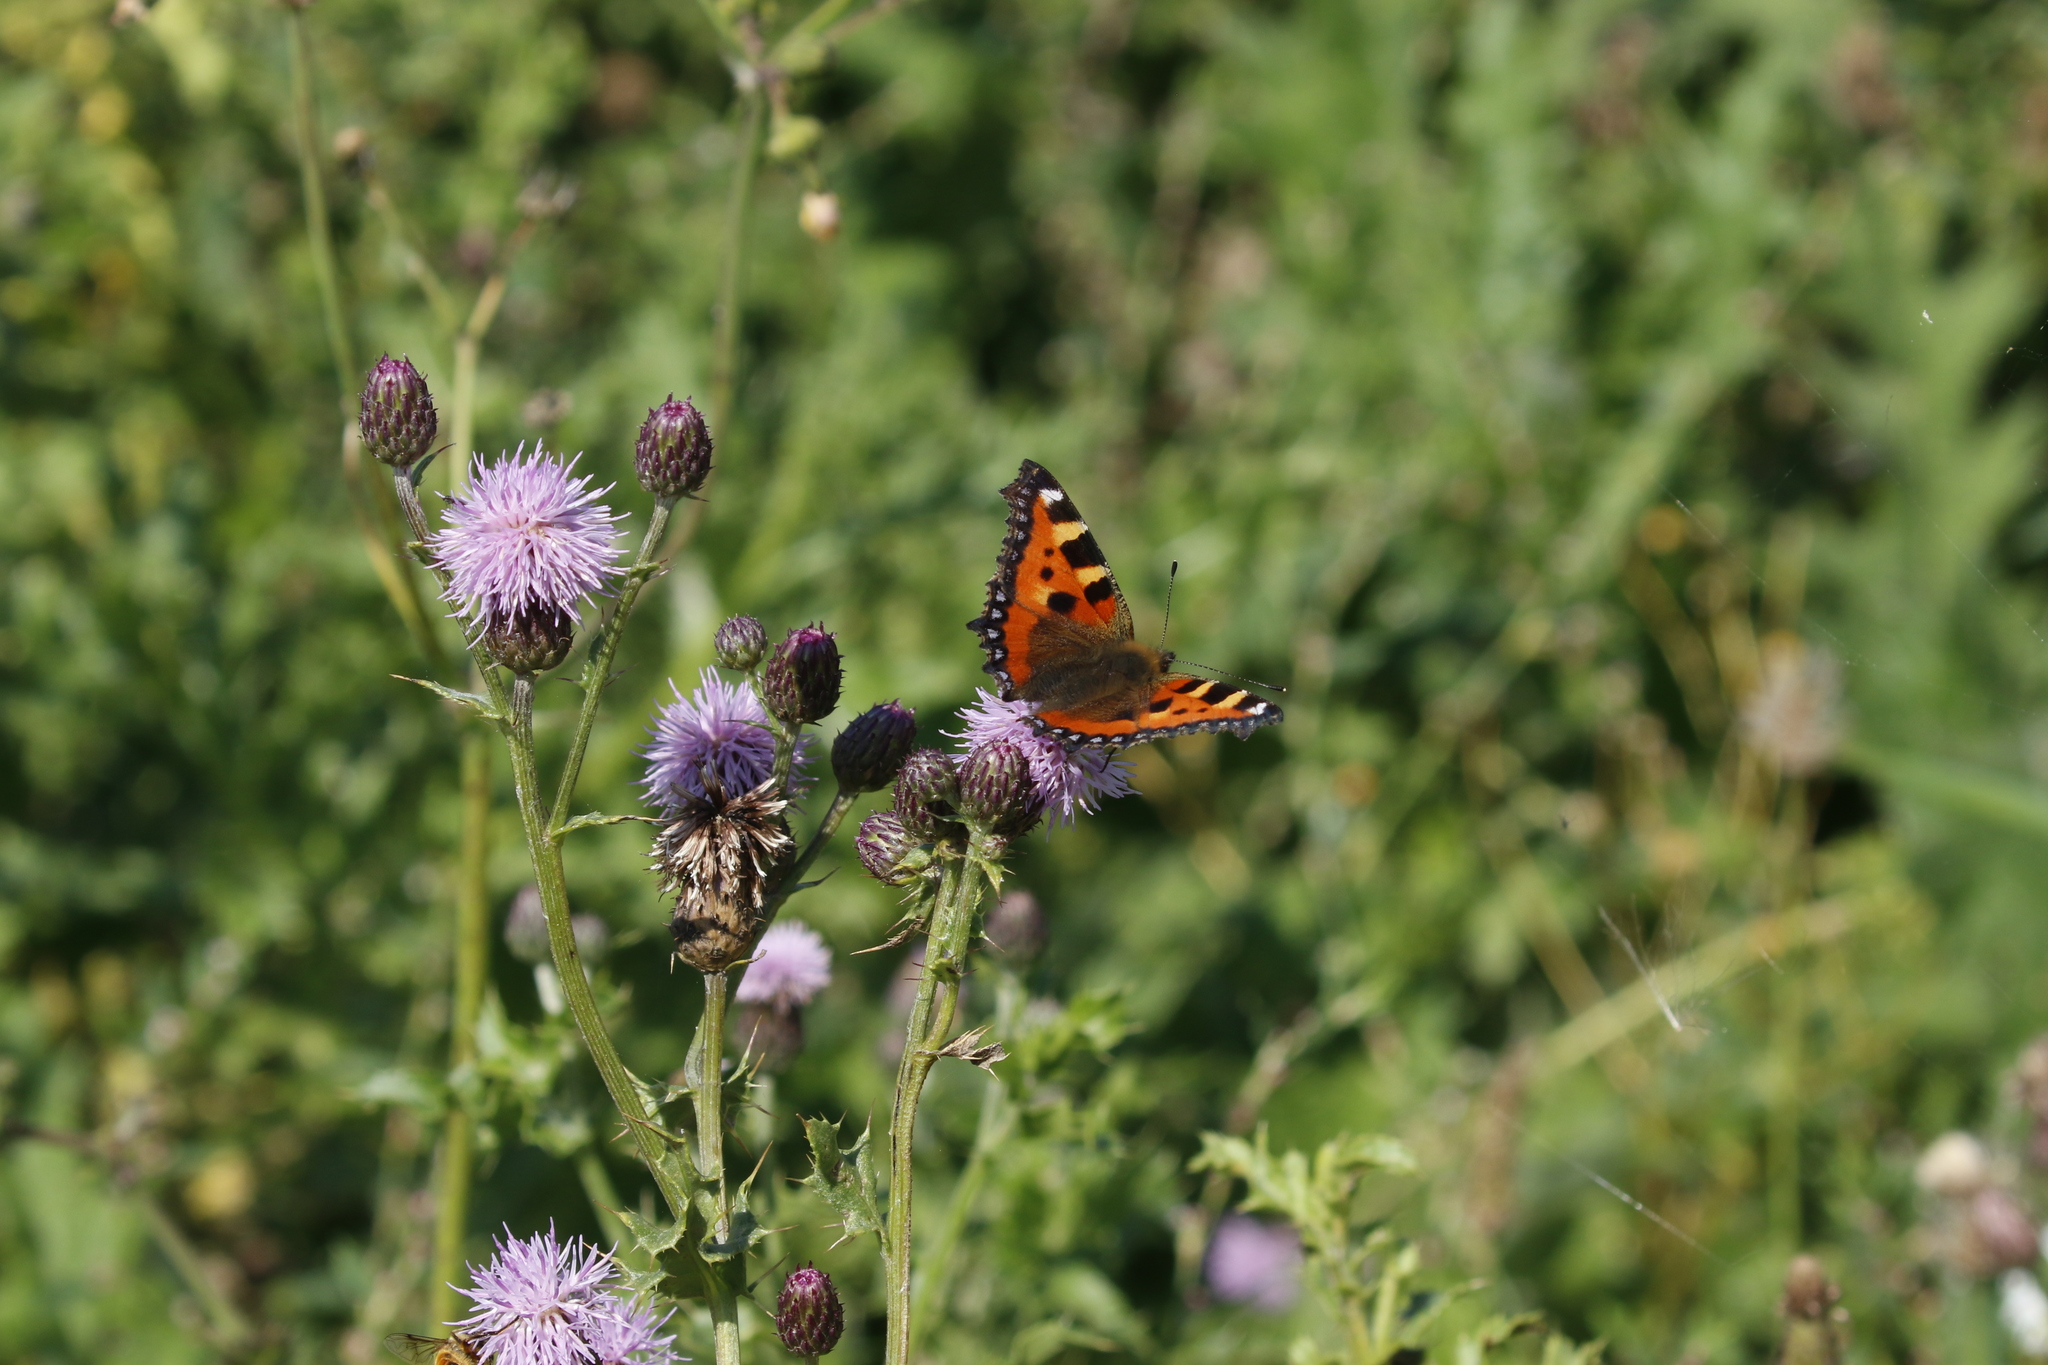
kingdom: Animalia
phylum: Arthropoda
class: Insecta
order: Lepidoptera
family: Nymphalidae
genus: Aglais
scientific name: Aglais urticae
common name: Small tortoiseshell
